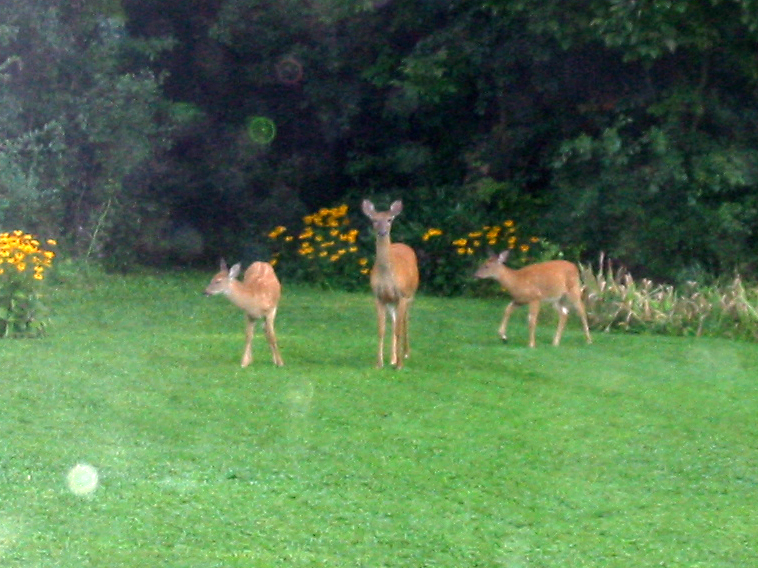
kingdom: Animalia
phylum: Chordata
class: Mammalia
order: Artiodactyla
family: Cervidae
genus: Odocoileus
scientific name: Odocoileus virginianus
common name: White-tailed deer
